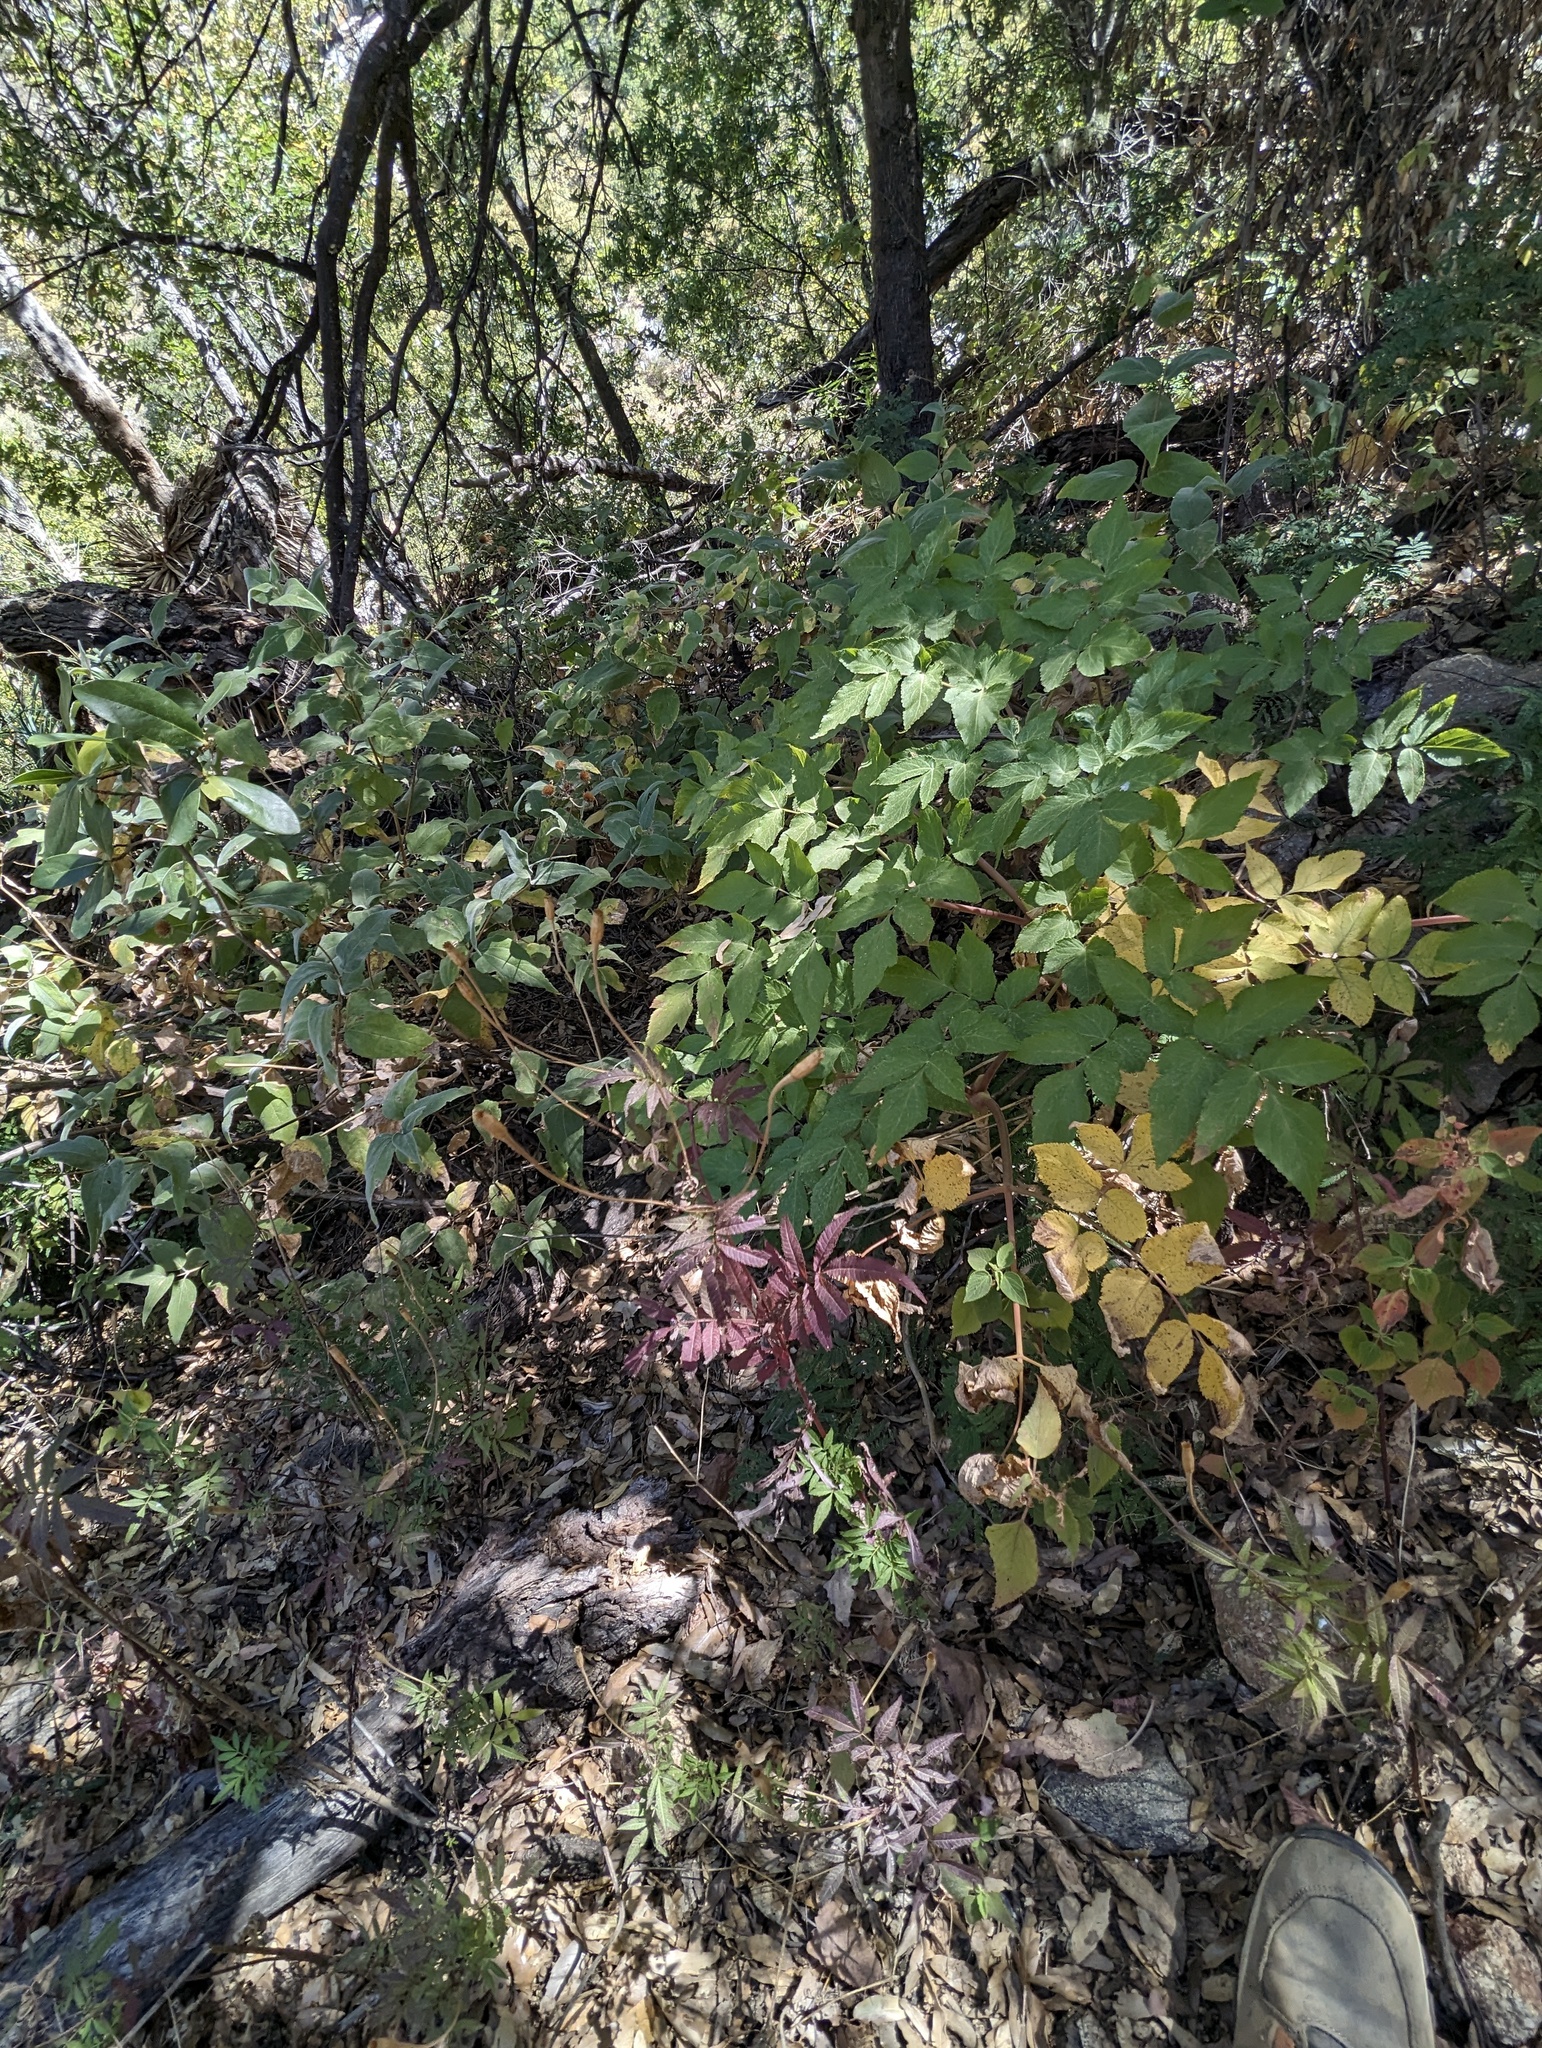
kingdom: Plantae
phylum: Tracheophyta
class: Magnoliopsida
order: Apiales
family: Apiaceae
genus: Arracacia
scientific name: Arracacia brandegeei
